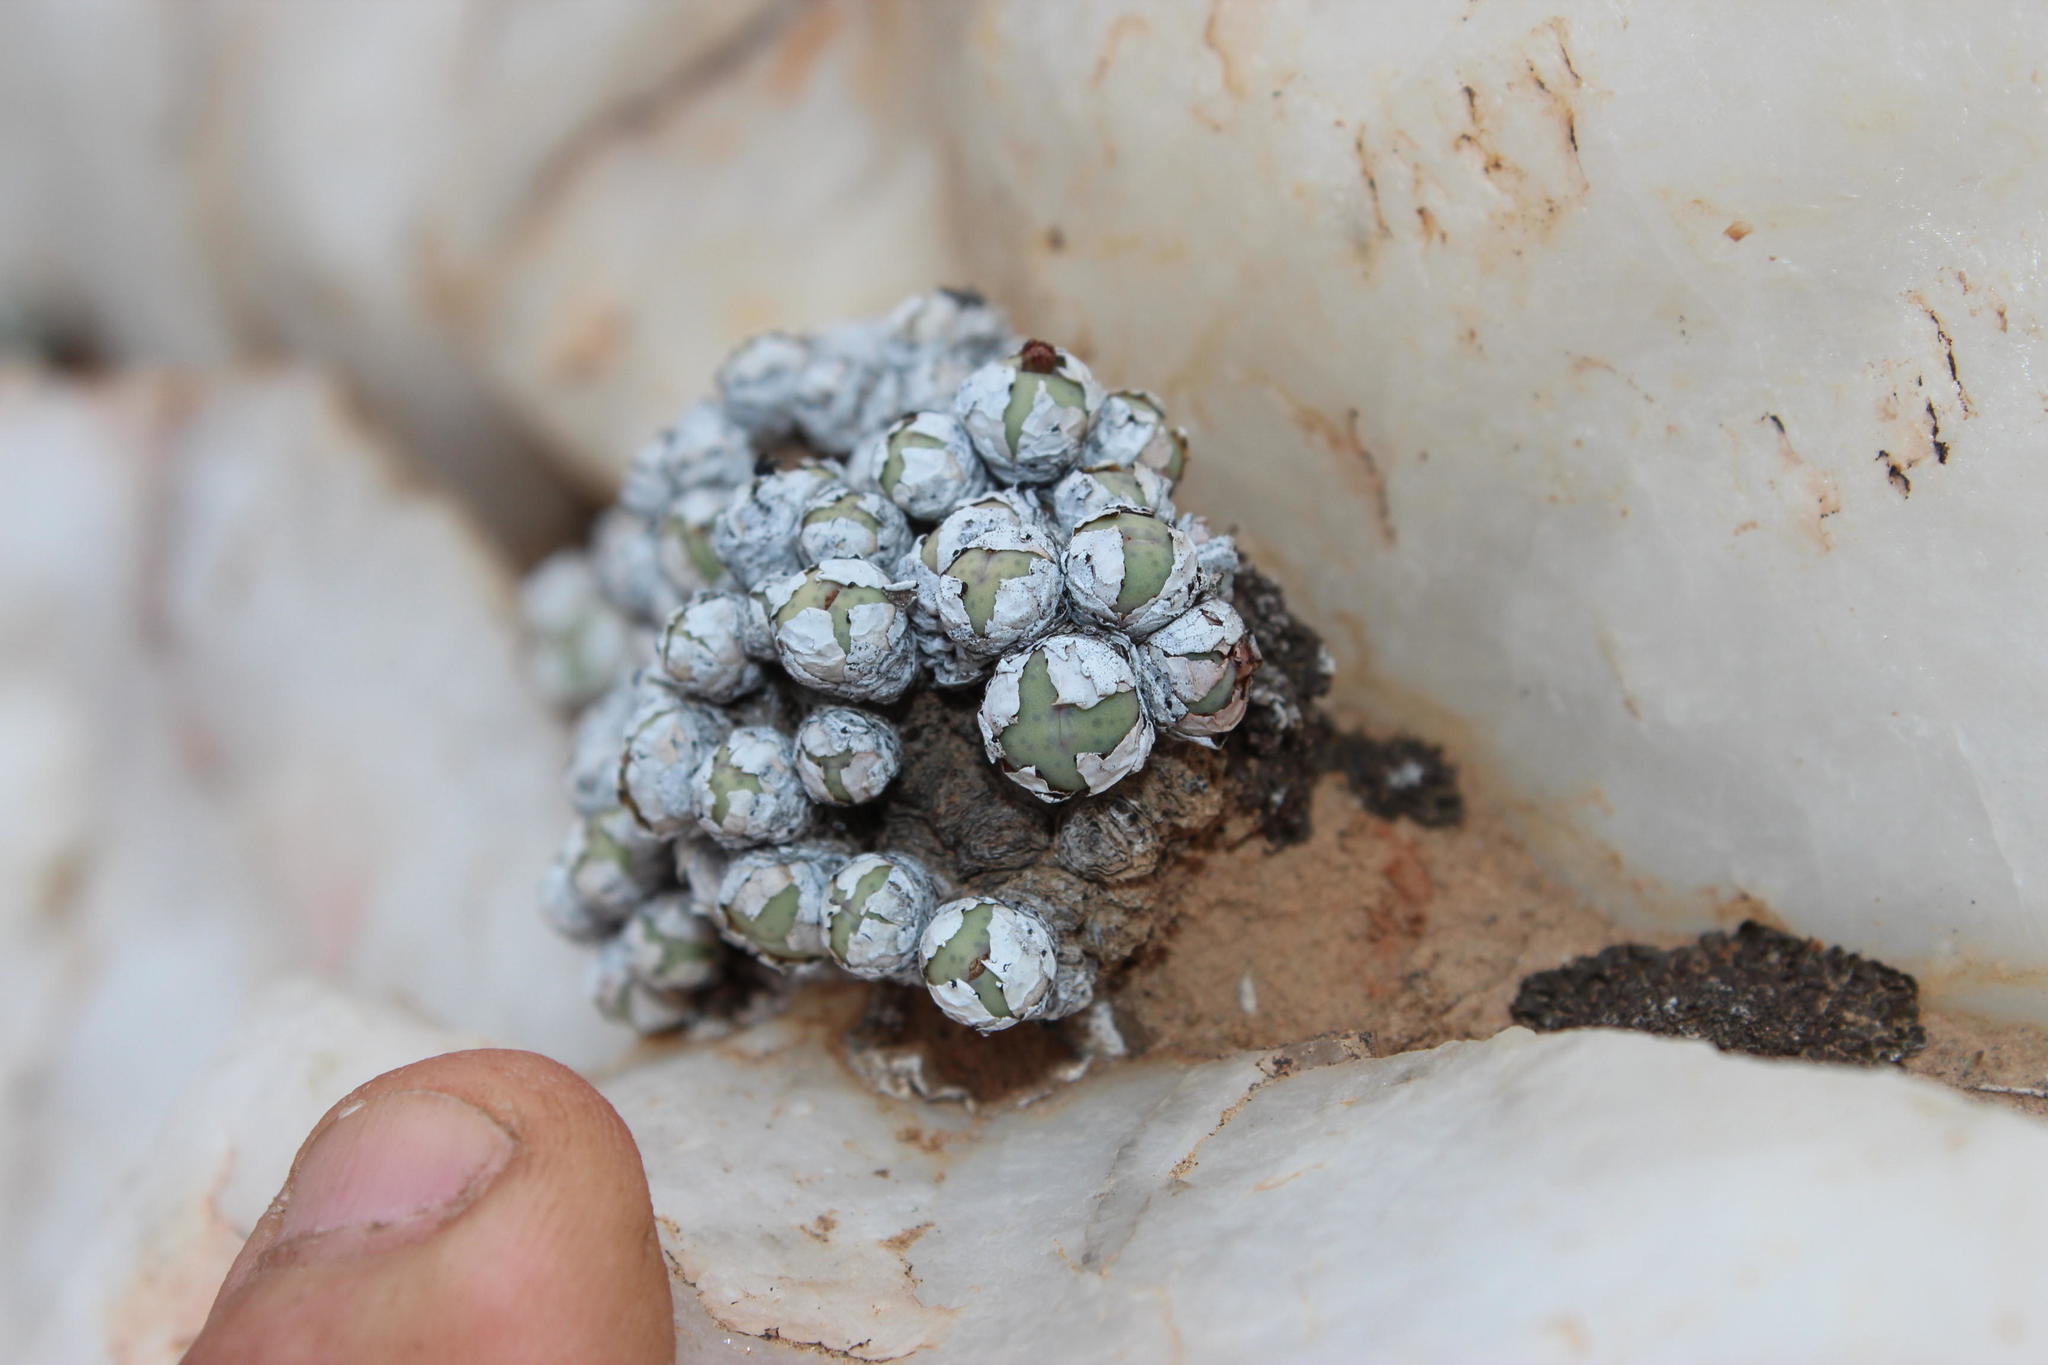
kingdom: Plantae
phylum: Tracheophyta
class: Magnoliopsida
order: Caryophyllales
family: Aizoaceae
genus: Conophytum
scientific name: Conophytum stevens-jonesianum
